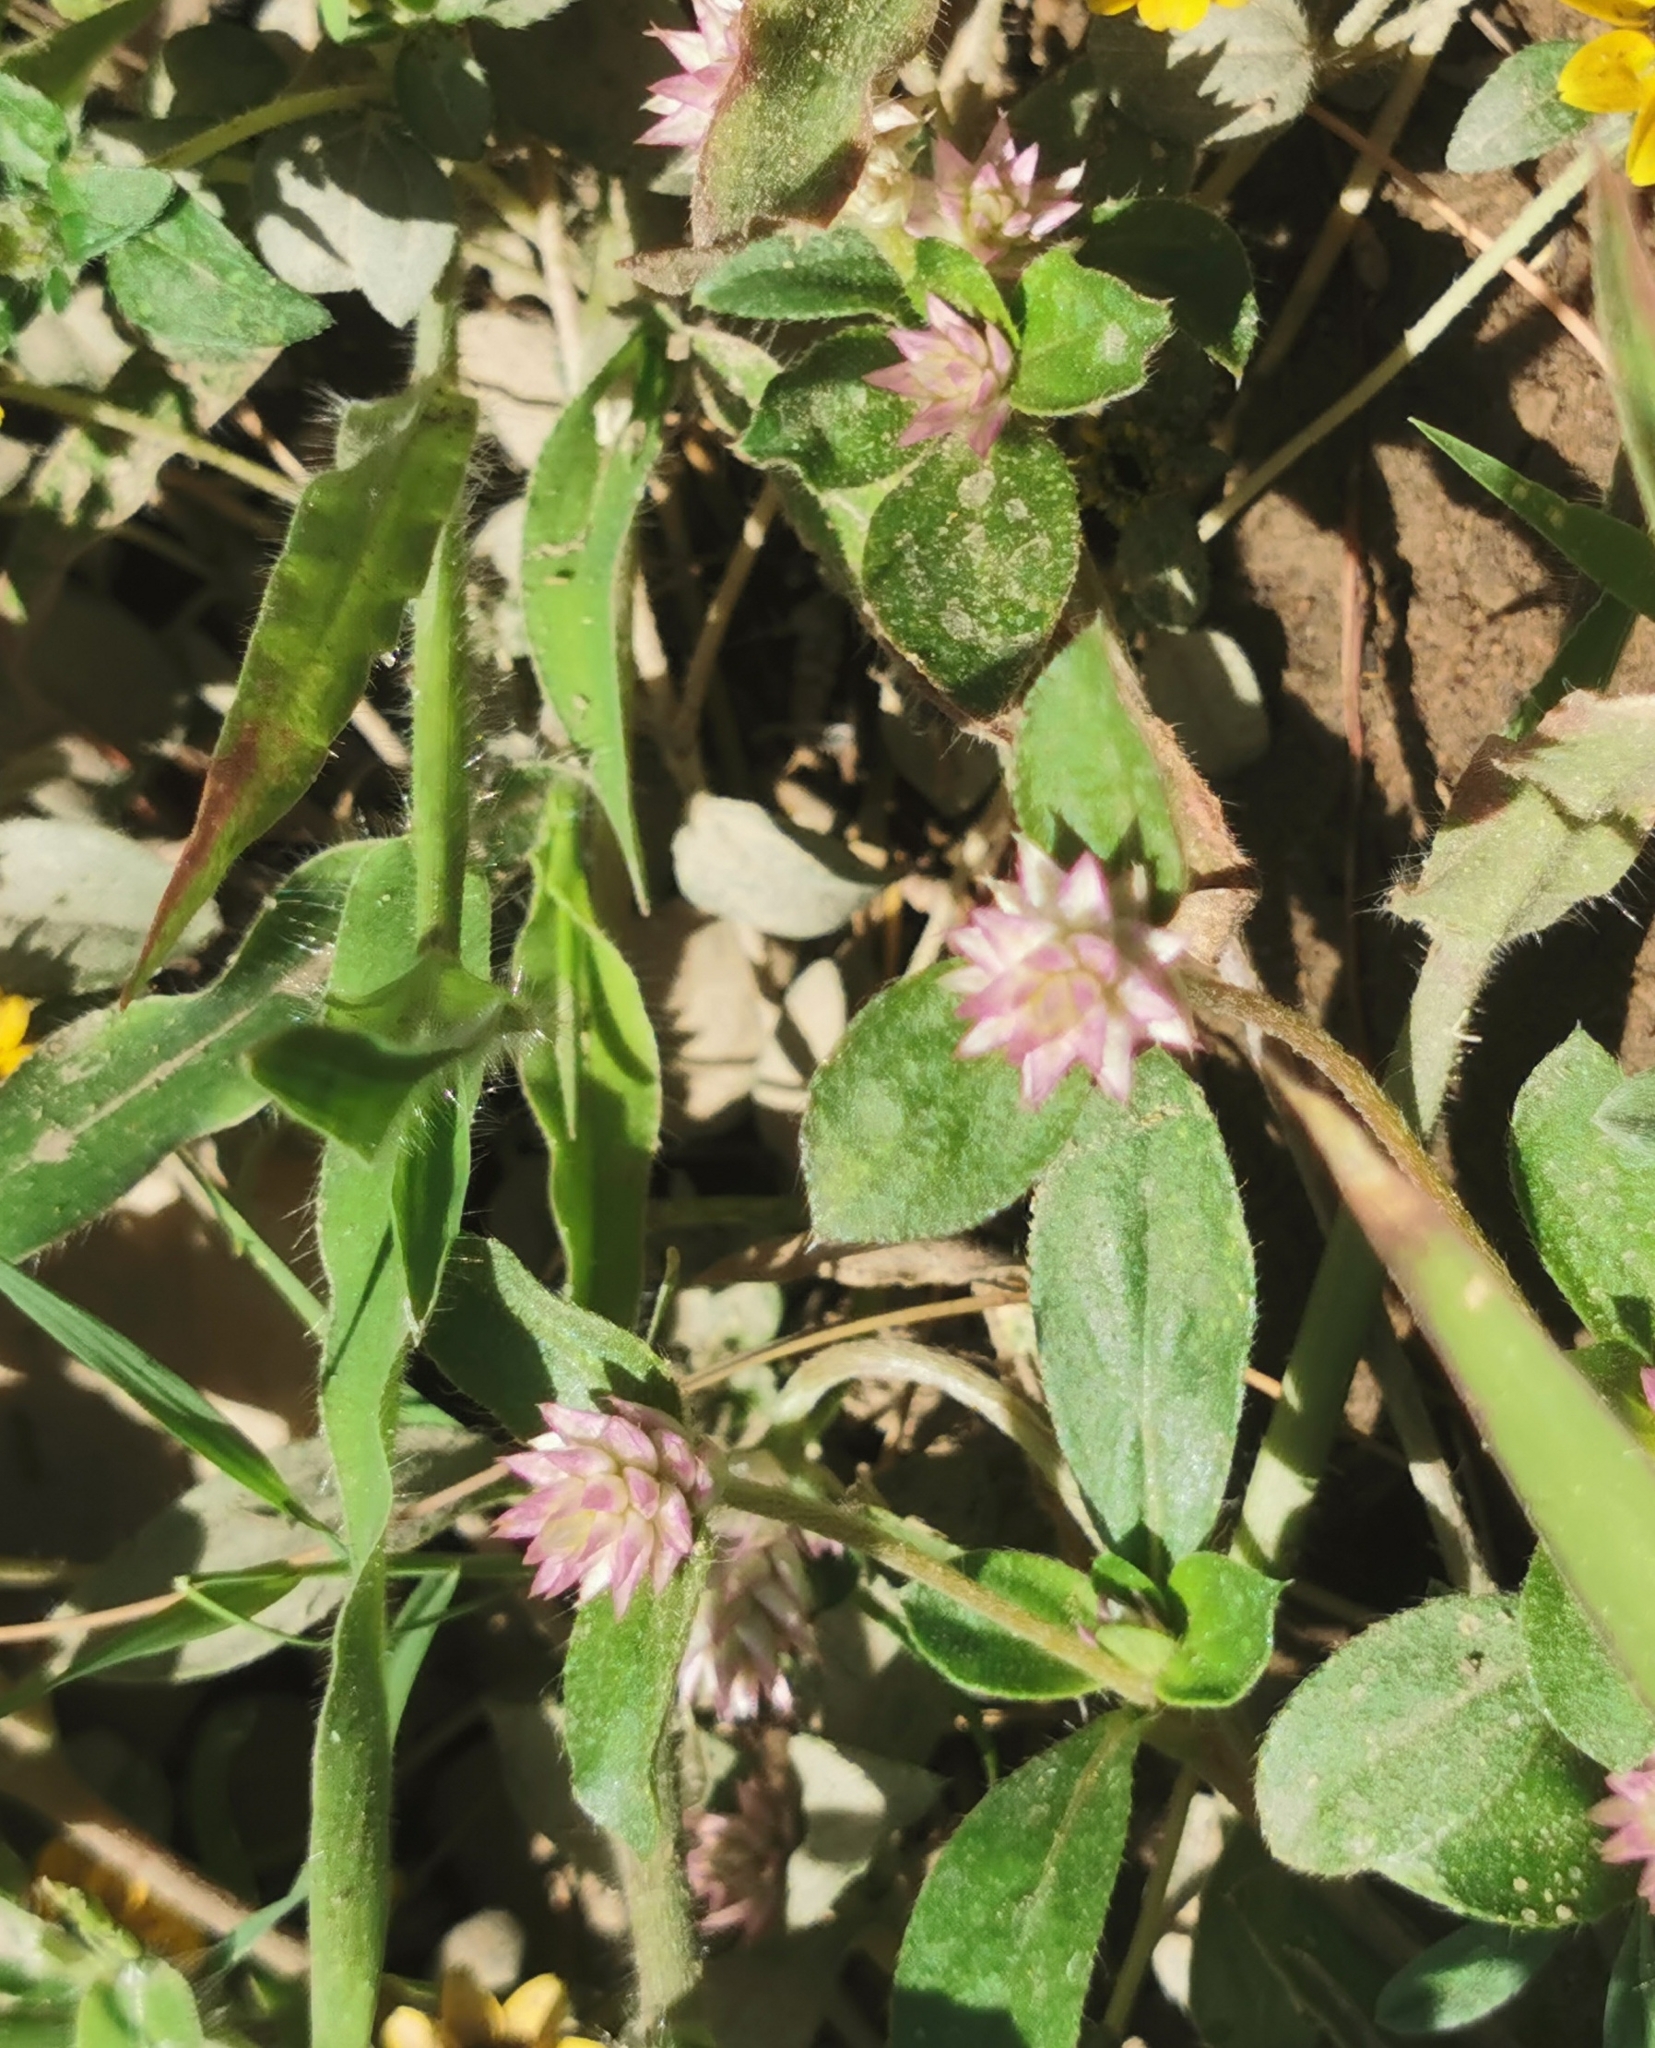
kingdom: Plantae
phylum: Tracheophyta
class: Magnoliopsida
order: Caryophyllales
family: Amaranthaceae
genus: Gomphrena
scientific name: Gomphrena serrata
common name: Arrasa con todo
